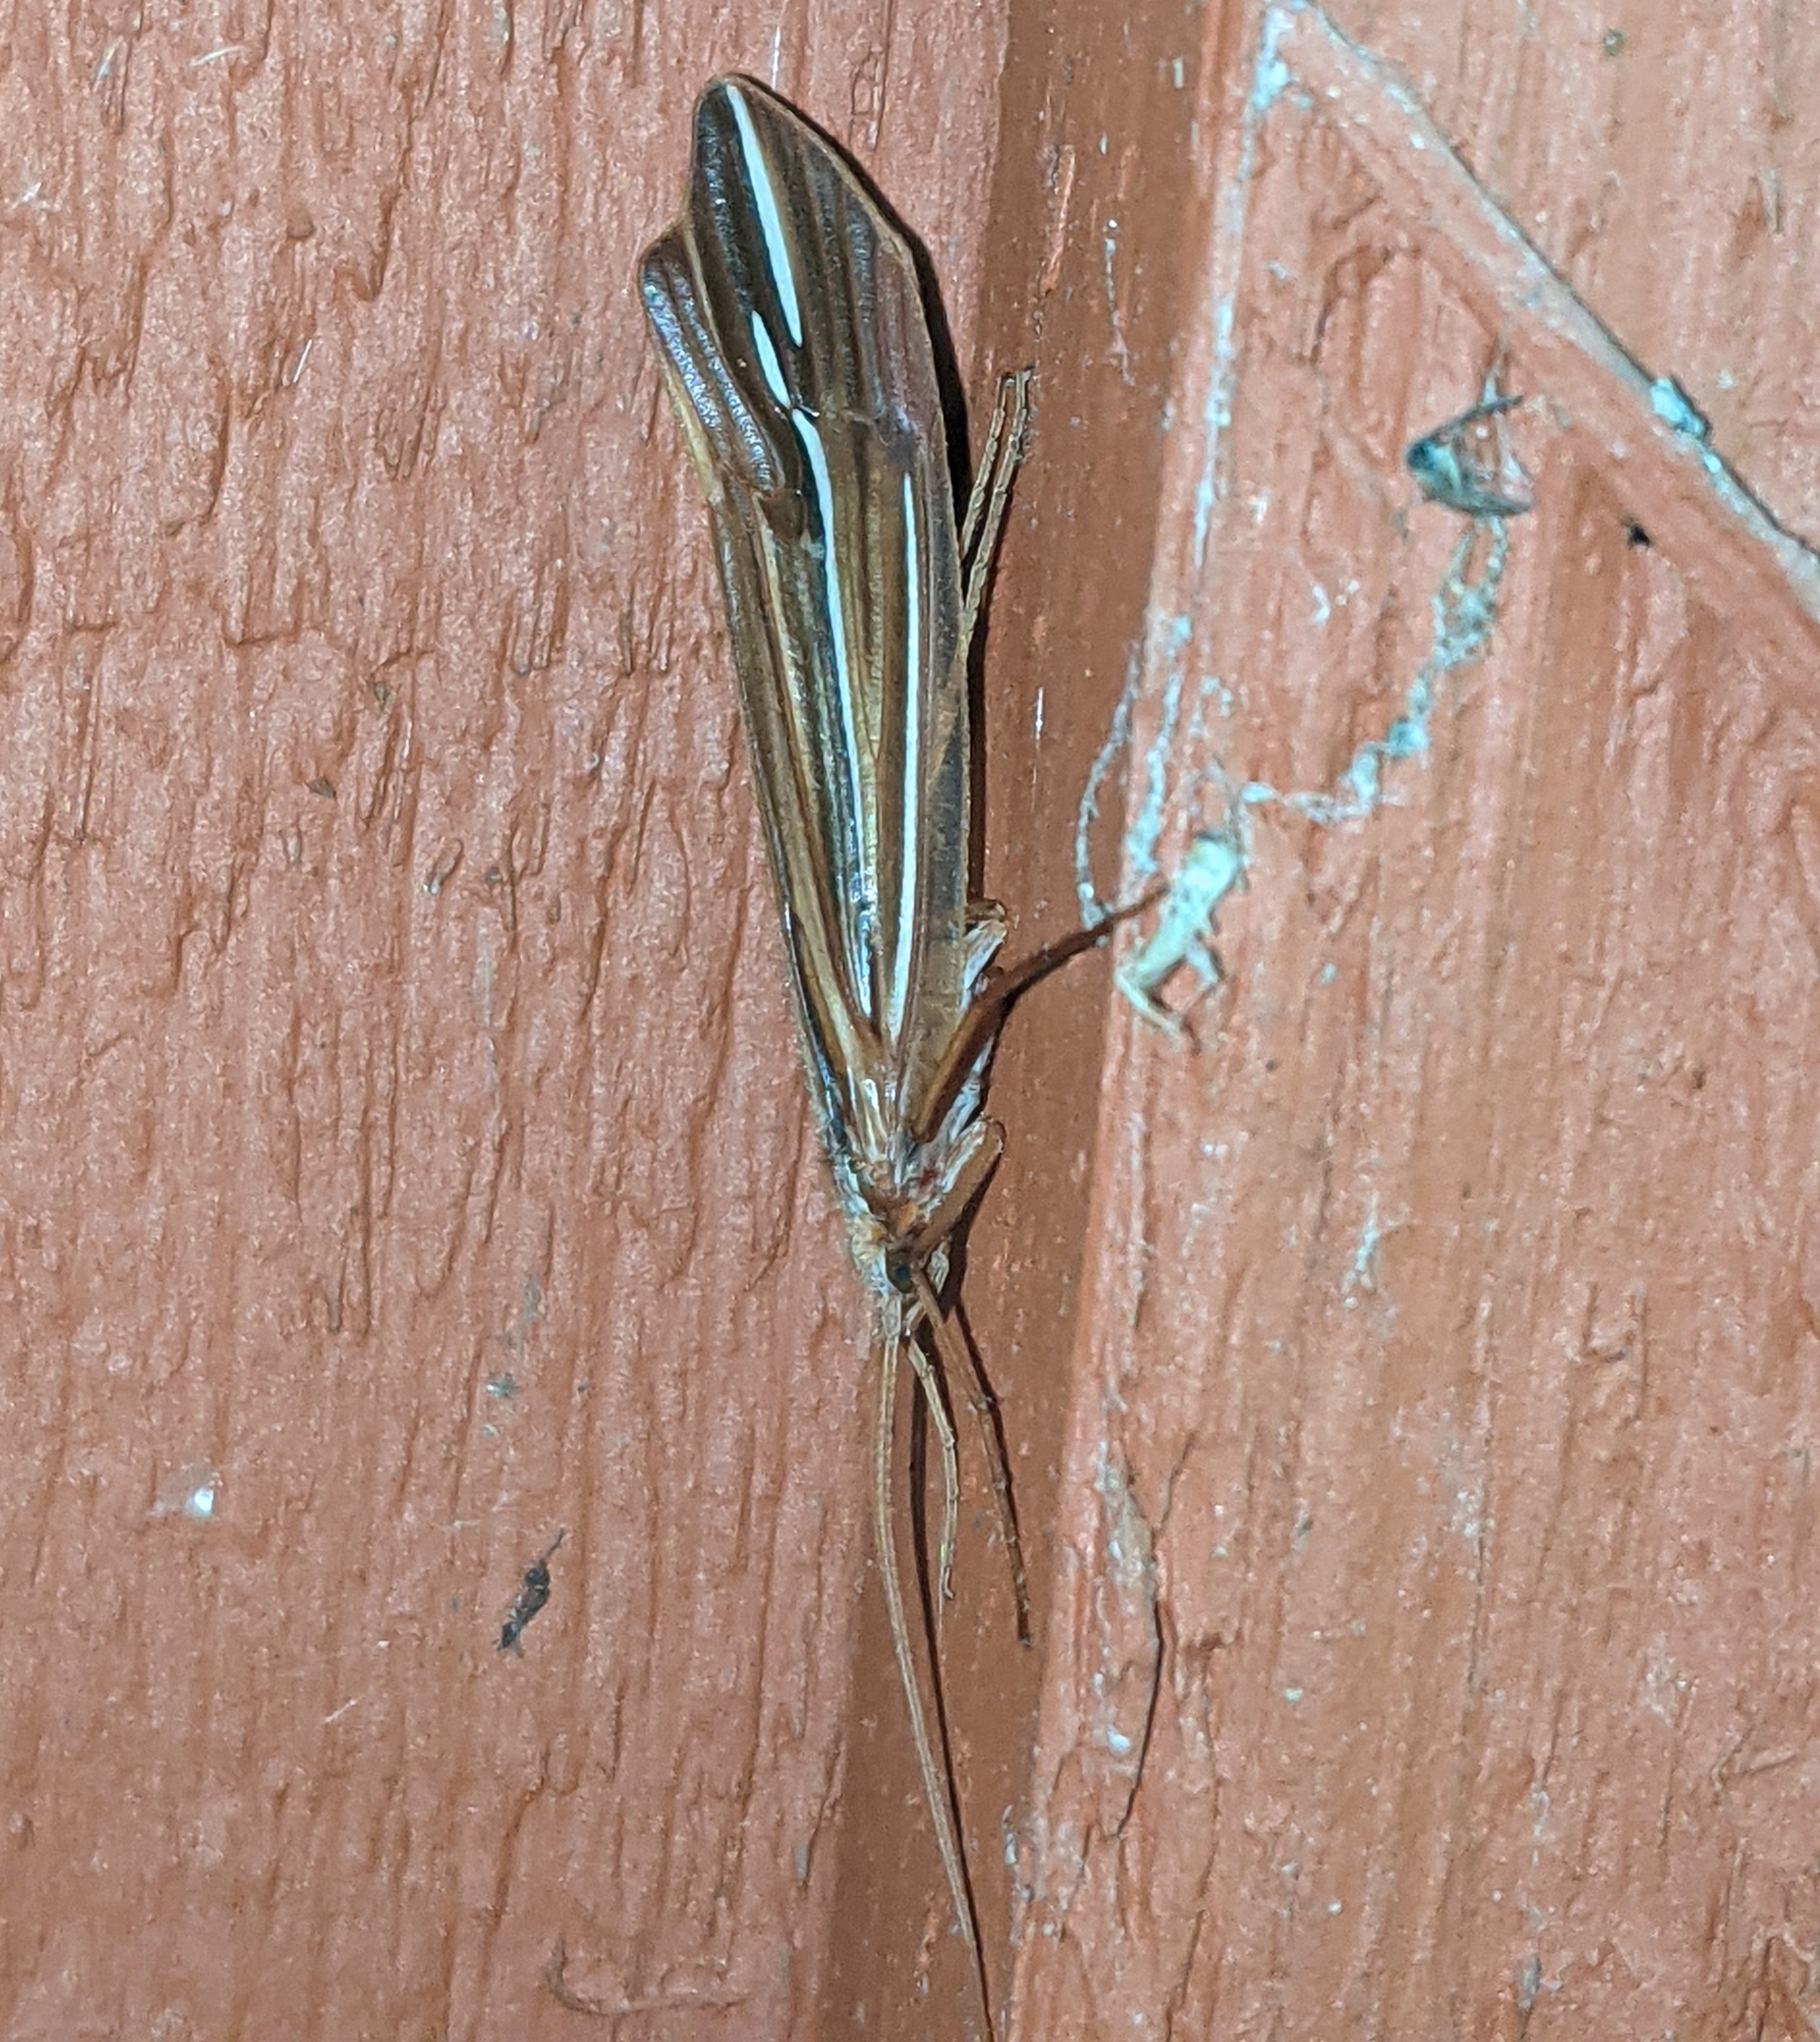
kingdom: Animalia
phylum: Arthropoda
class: Insecta
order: Trichoptera
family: Limnephilidae
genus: Psychoglypha
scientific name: Psychoglypha bella
